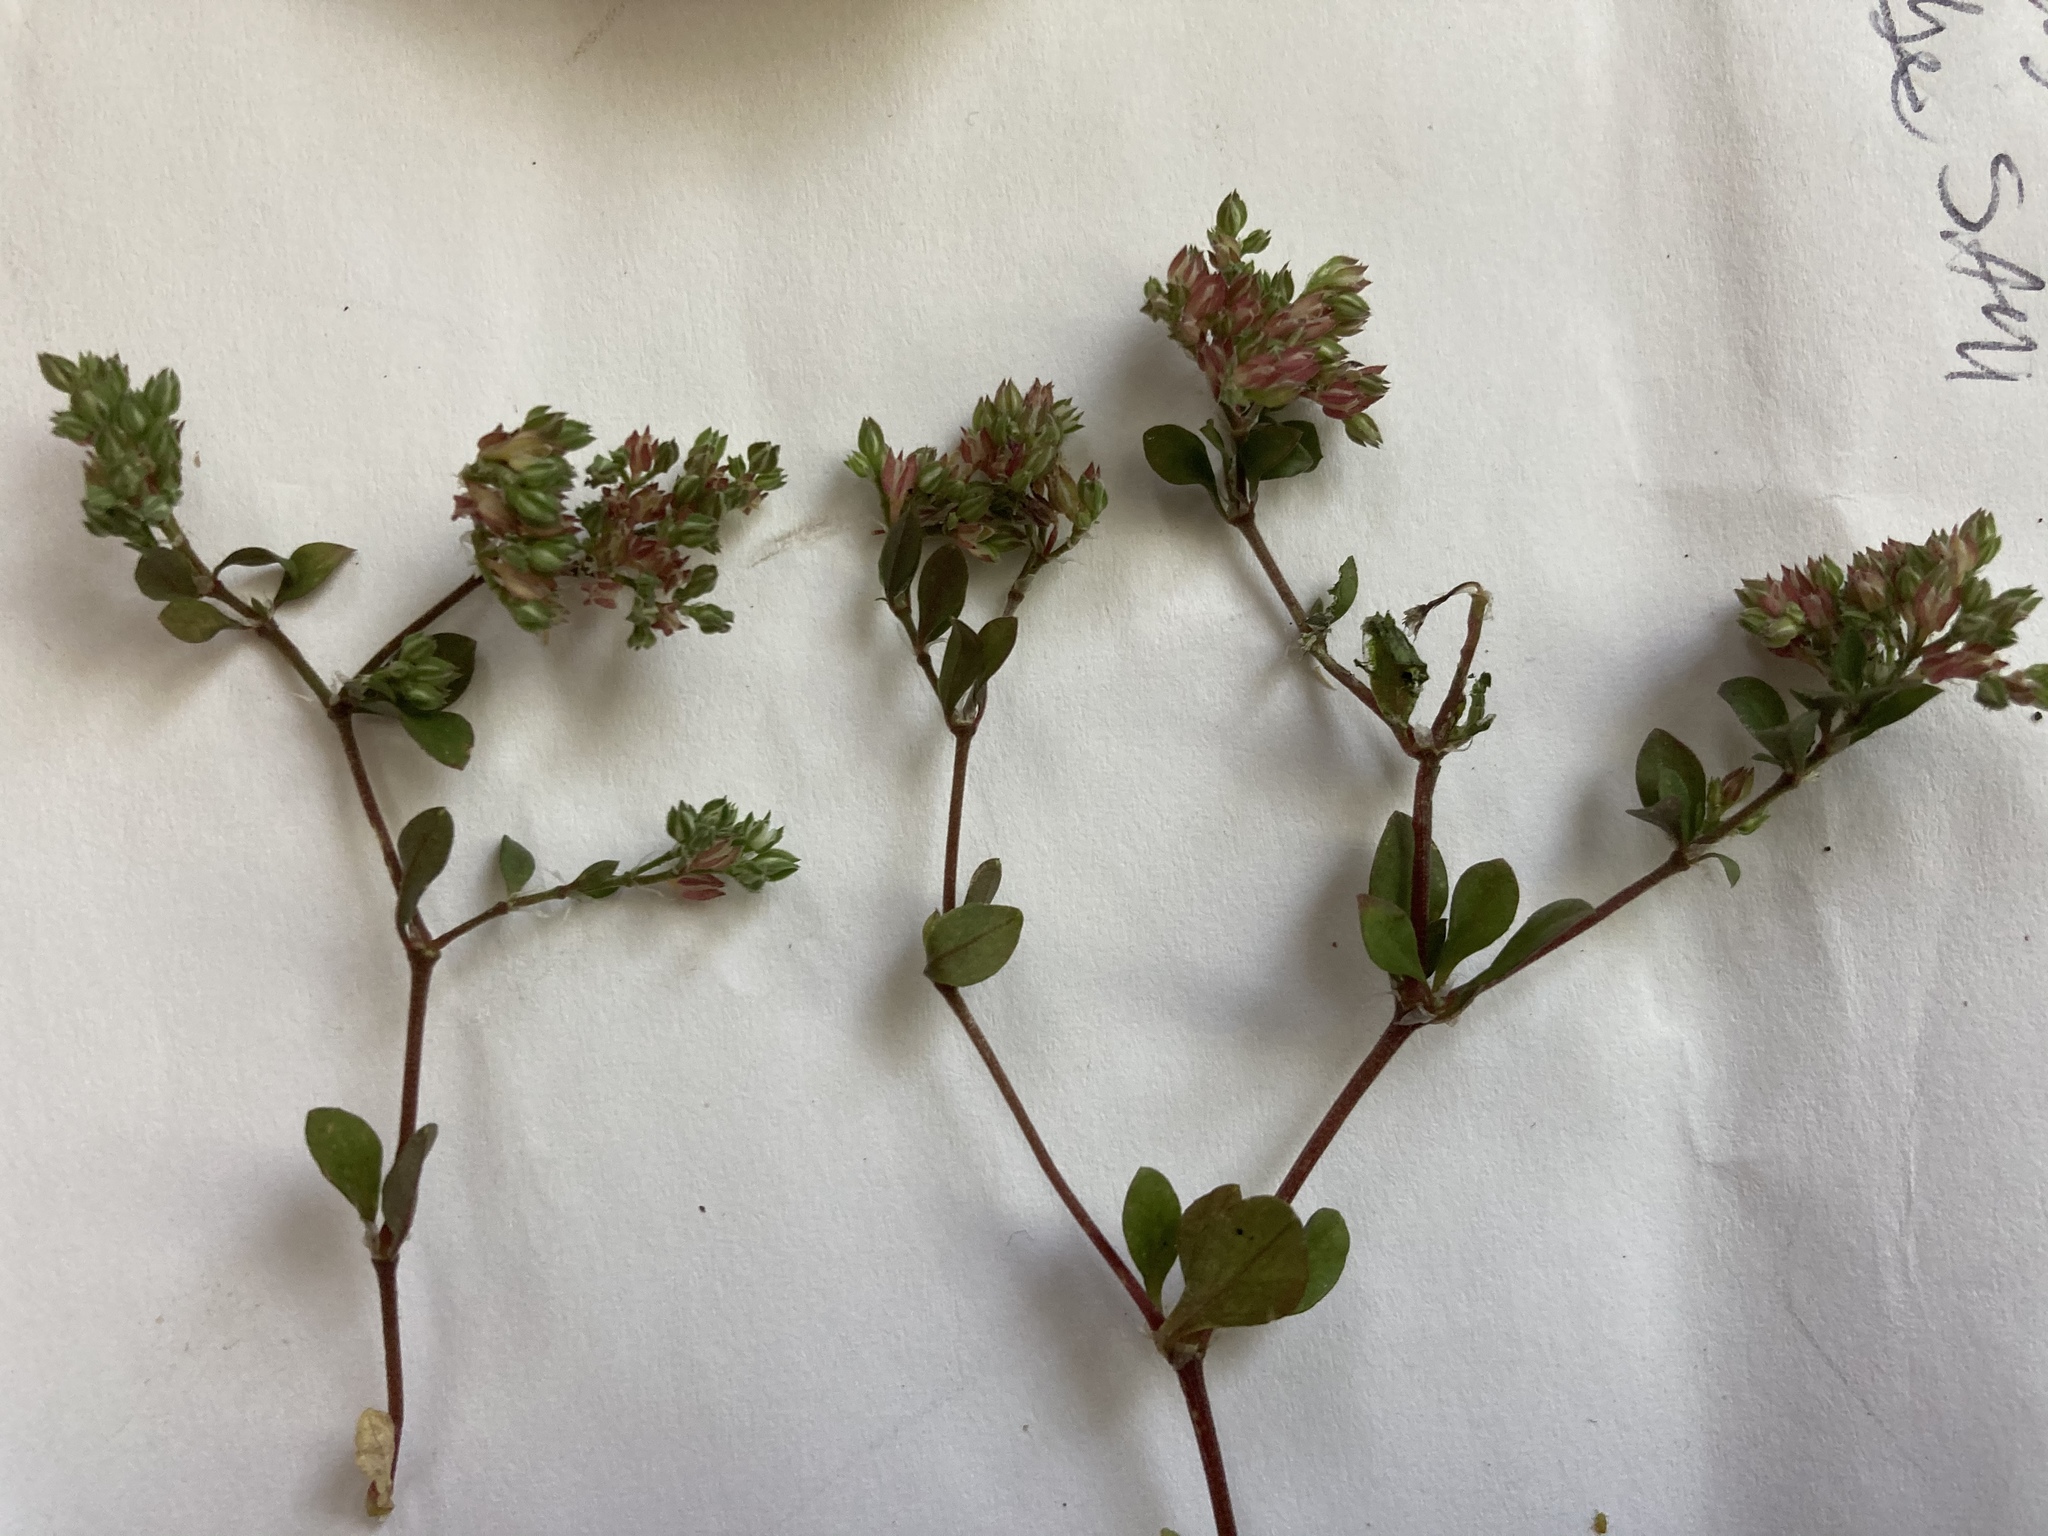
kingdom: Plantae
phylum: Tracheophyta
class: Magnoliopsida
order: Caryophyllales
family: Caryophyllaceae
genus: Polycarpon
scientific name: Polycarpon tetraphyllum
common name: Four-leaved all-seed
